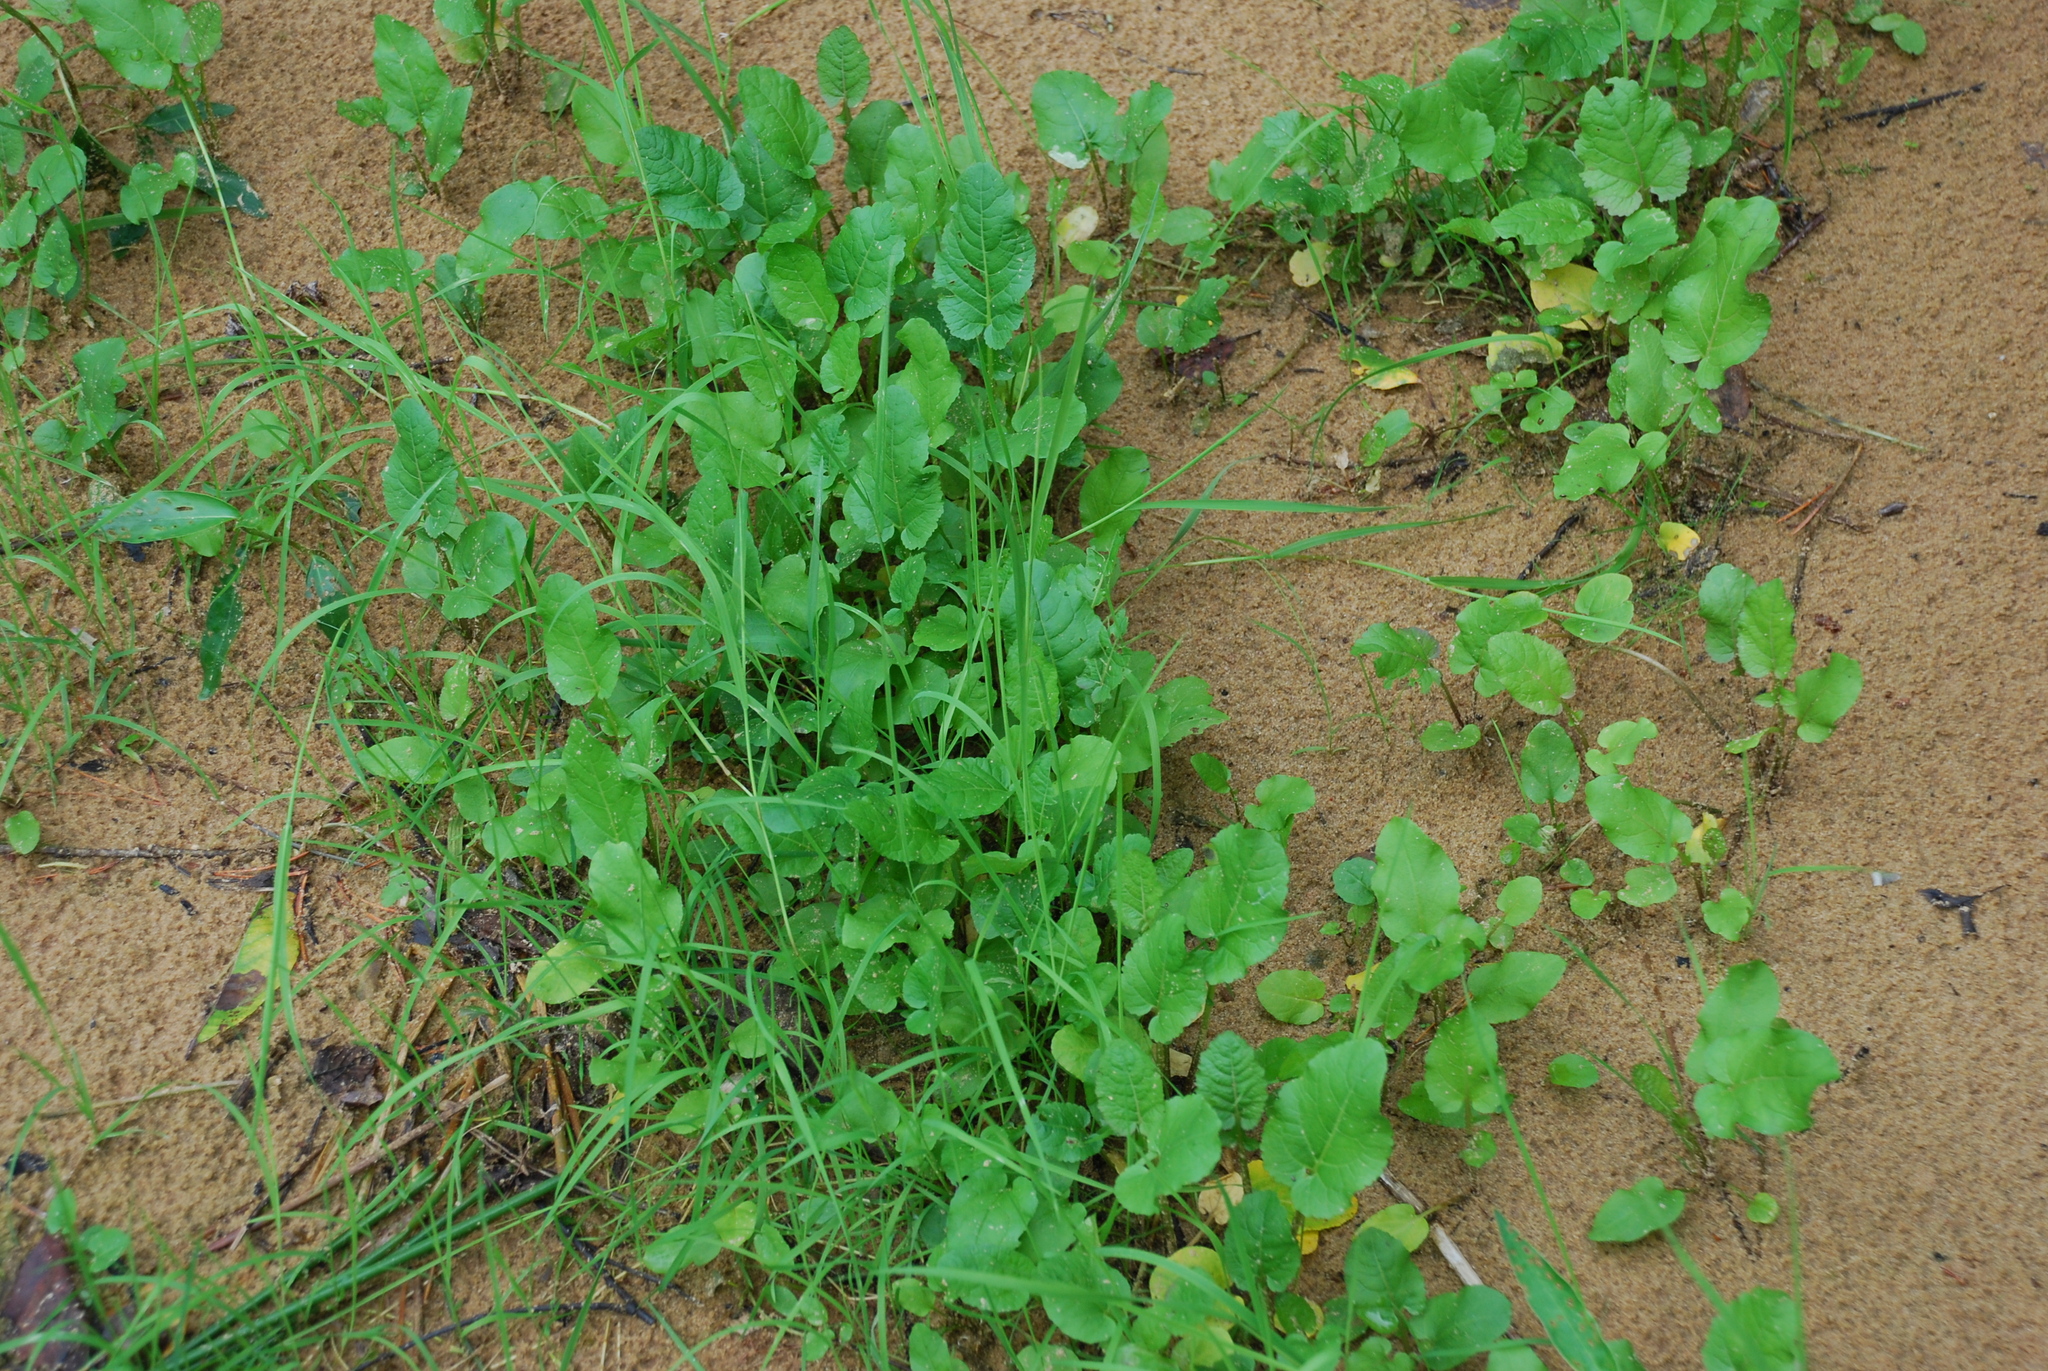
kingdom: Plantae
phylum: Tracheophyta
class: Magnoliopsida
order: Brassicales
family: Brassicaceae
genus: Rorippa
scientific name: Rorippa amphibia
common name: Great yellow-cress
